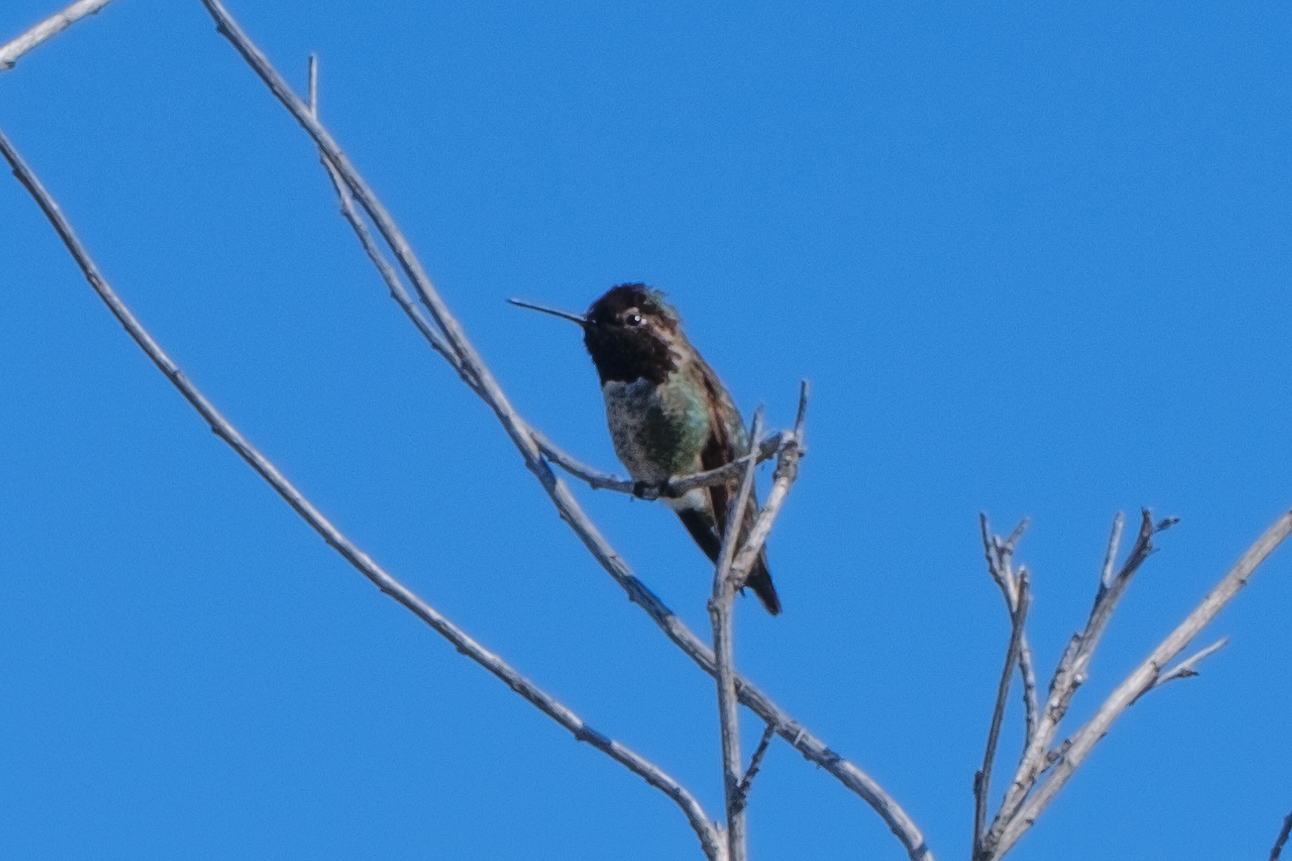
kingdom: Animalia
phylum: Chordata
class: Aves
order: Apodiformes
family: Trochilidae
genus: Calypte
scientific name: Calypte anna
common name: Anna's hummingbird
